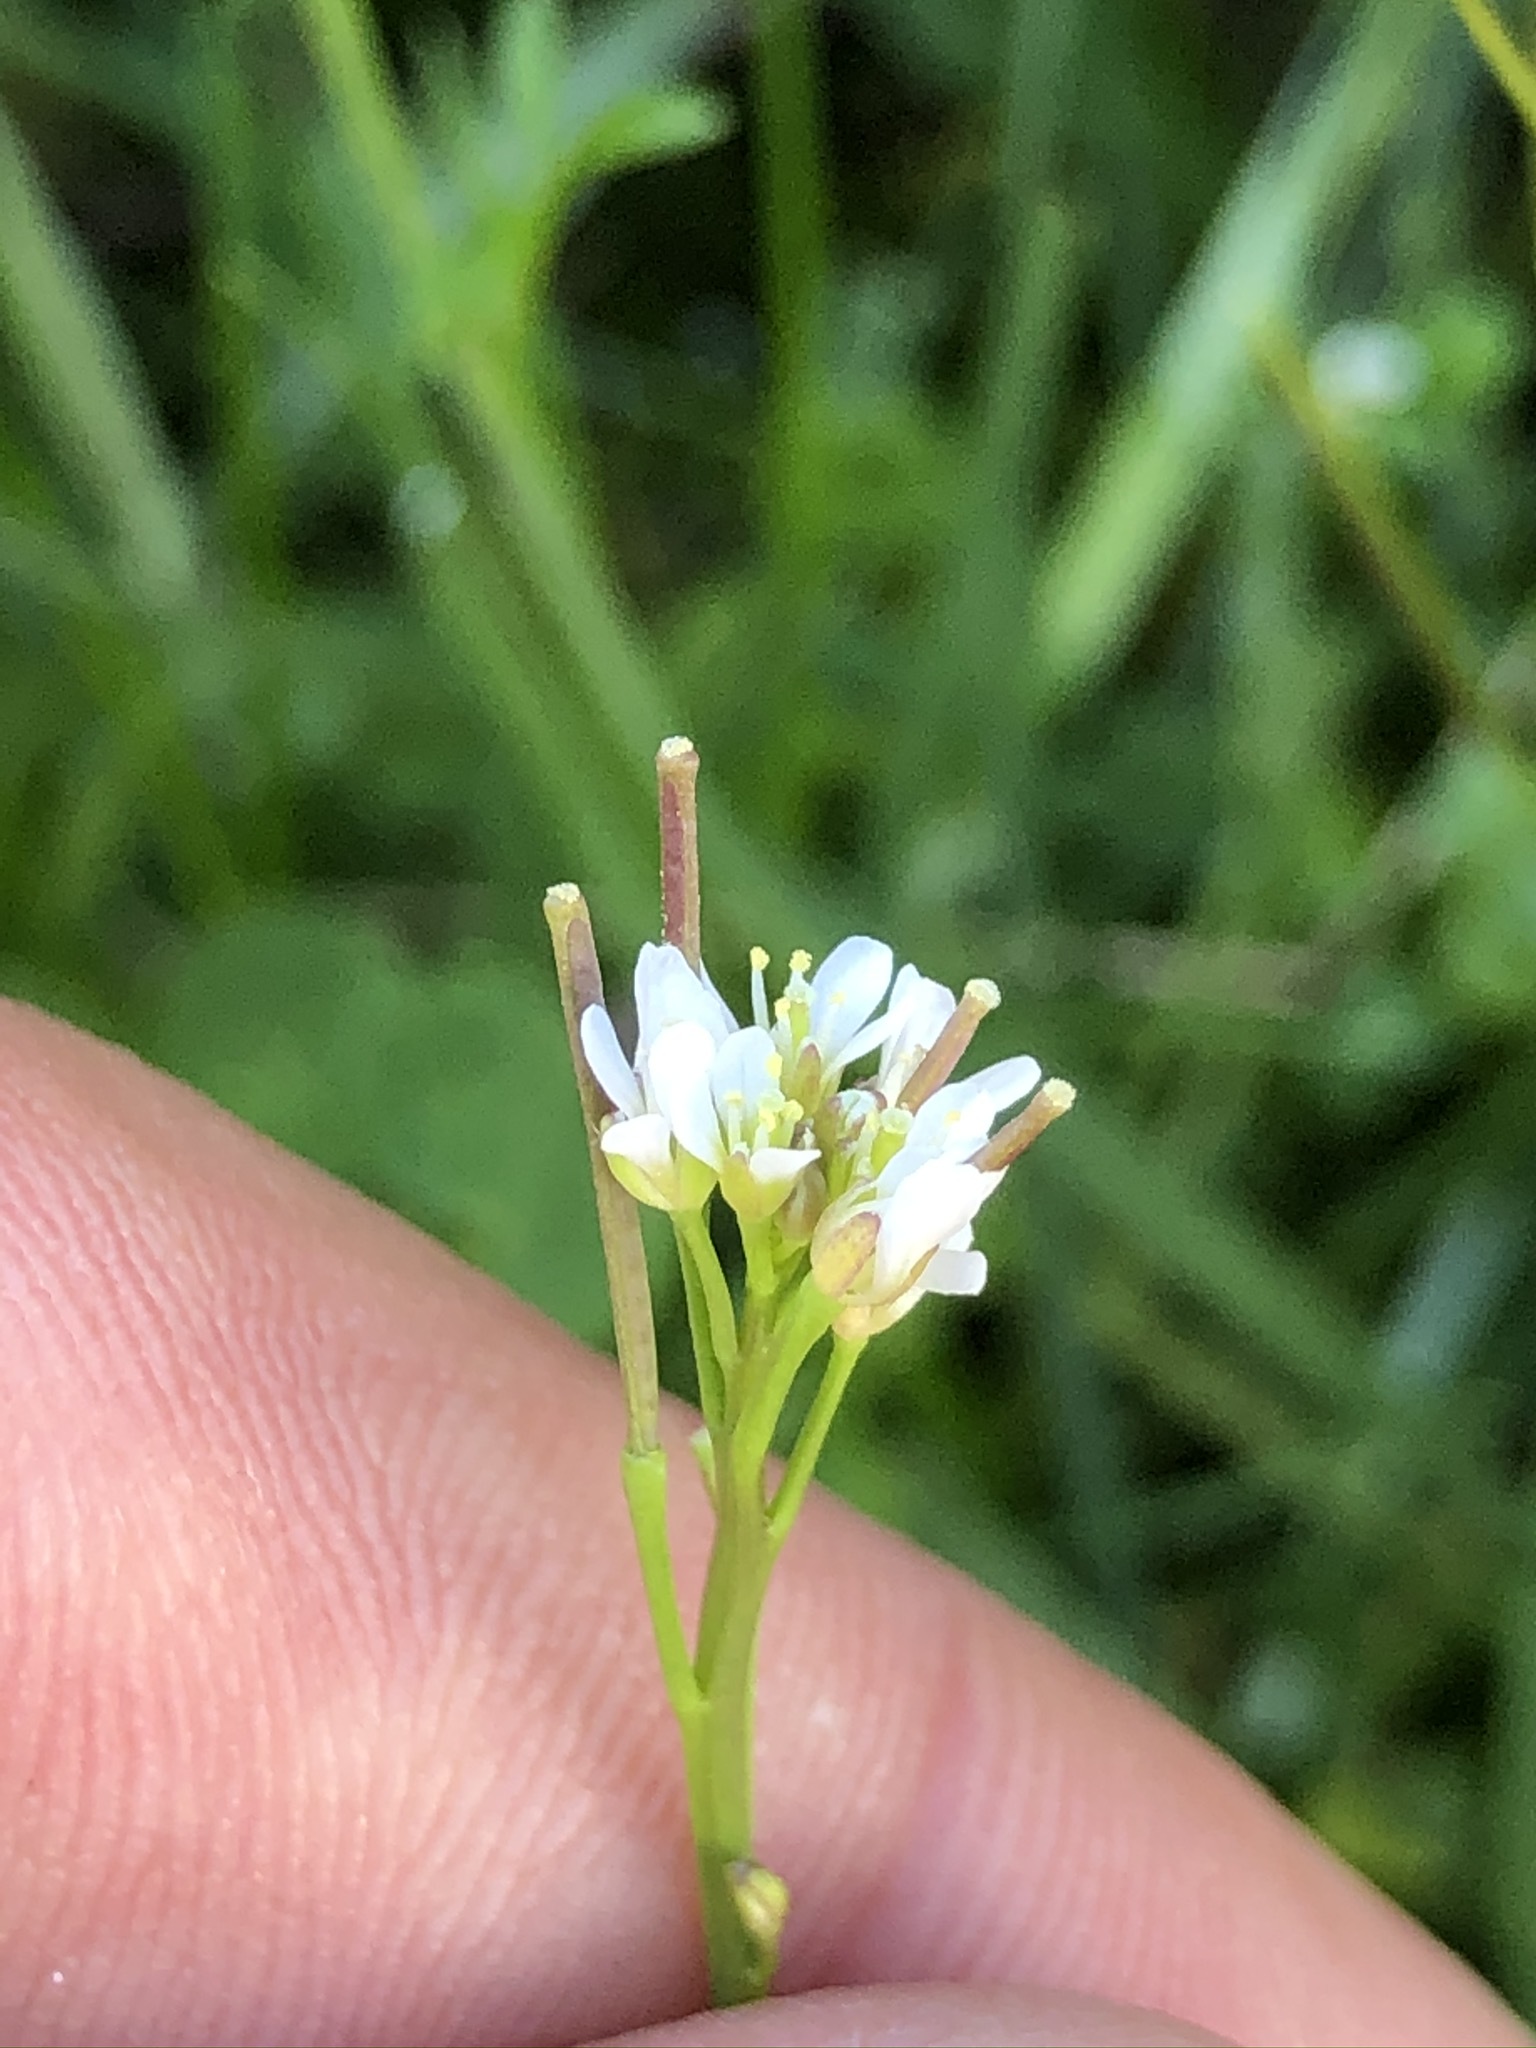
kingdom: Plantae
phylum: Tracheophyta
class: Magnoliopsida
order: Brassicales
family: Brassicaceae
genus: Cardamine
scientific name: Cardamine hirsuta
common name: Hairy bittercress
